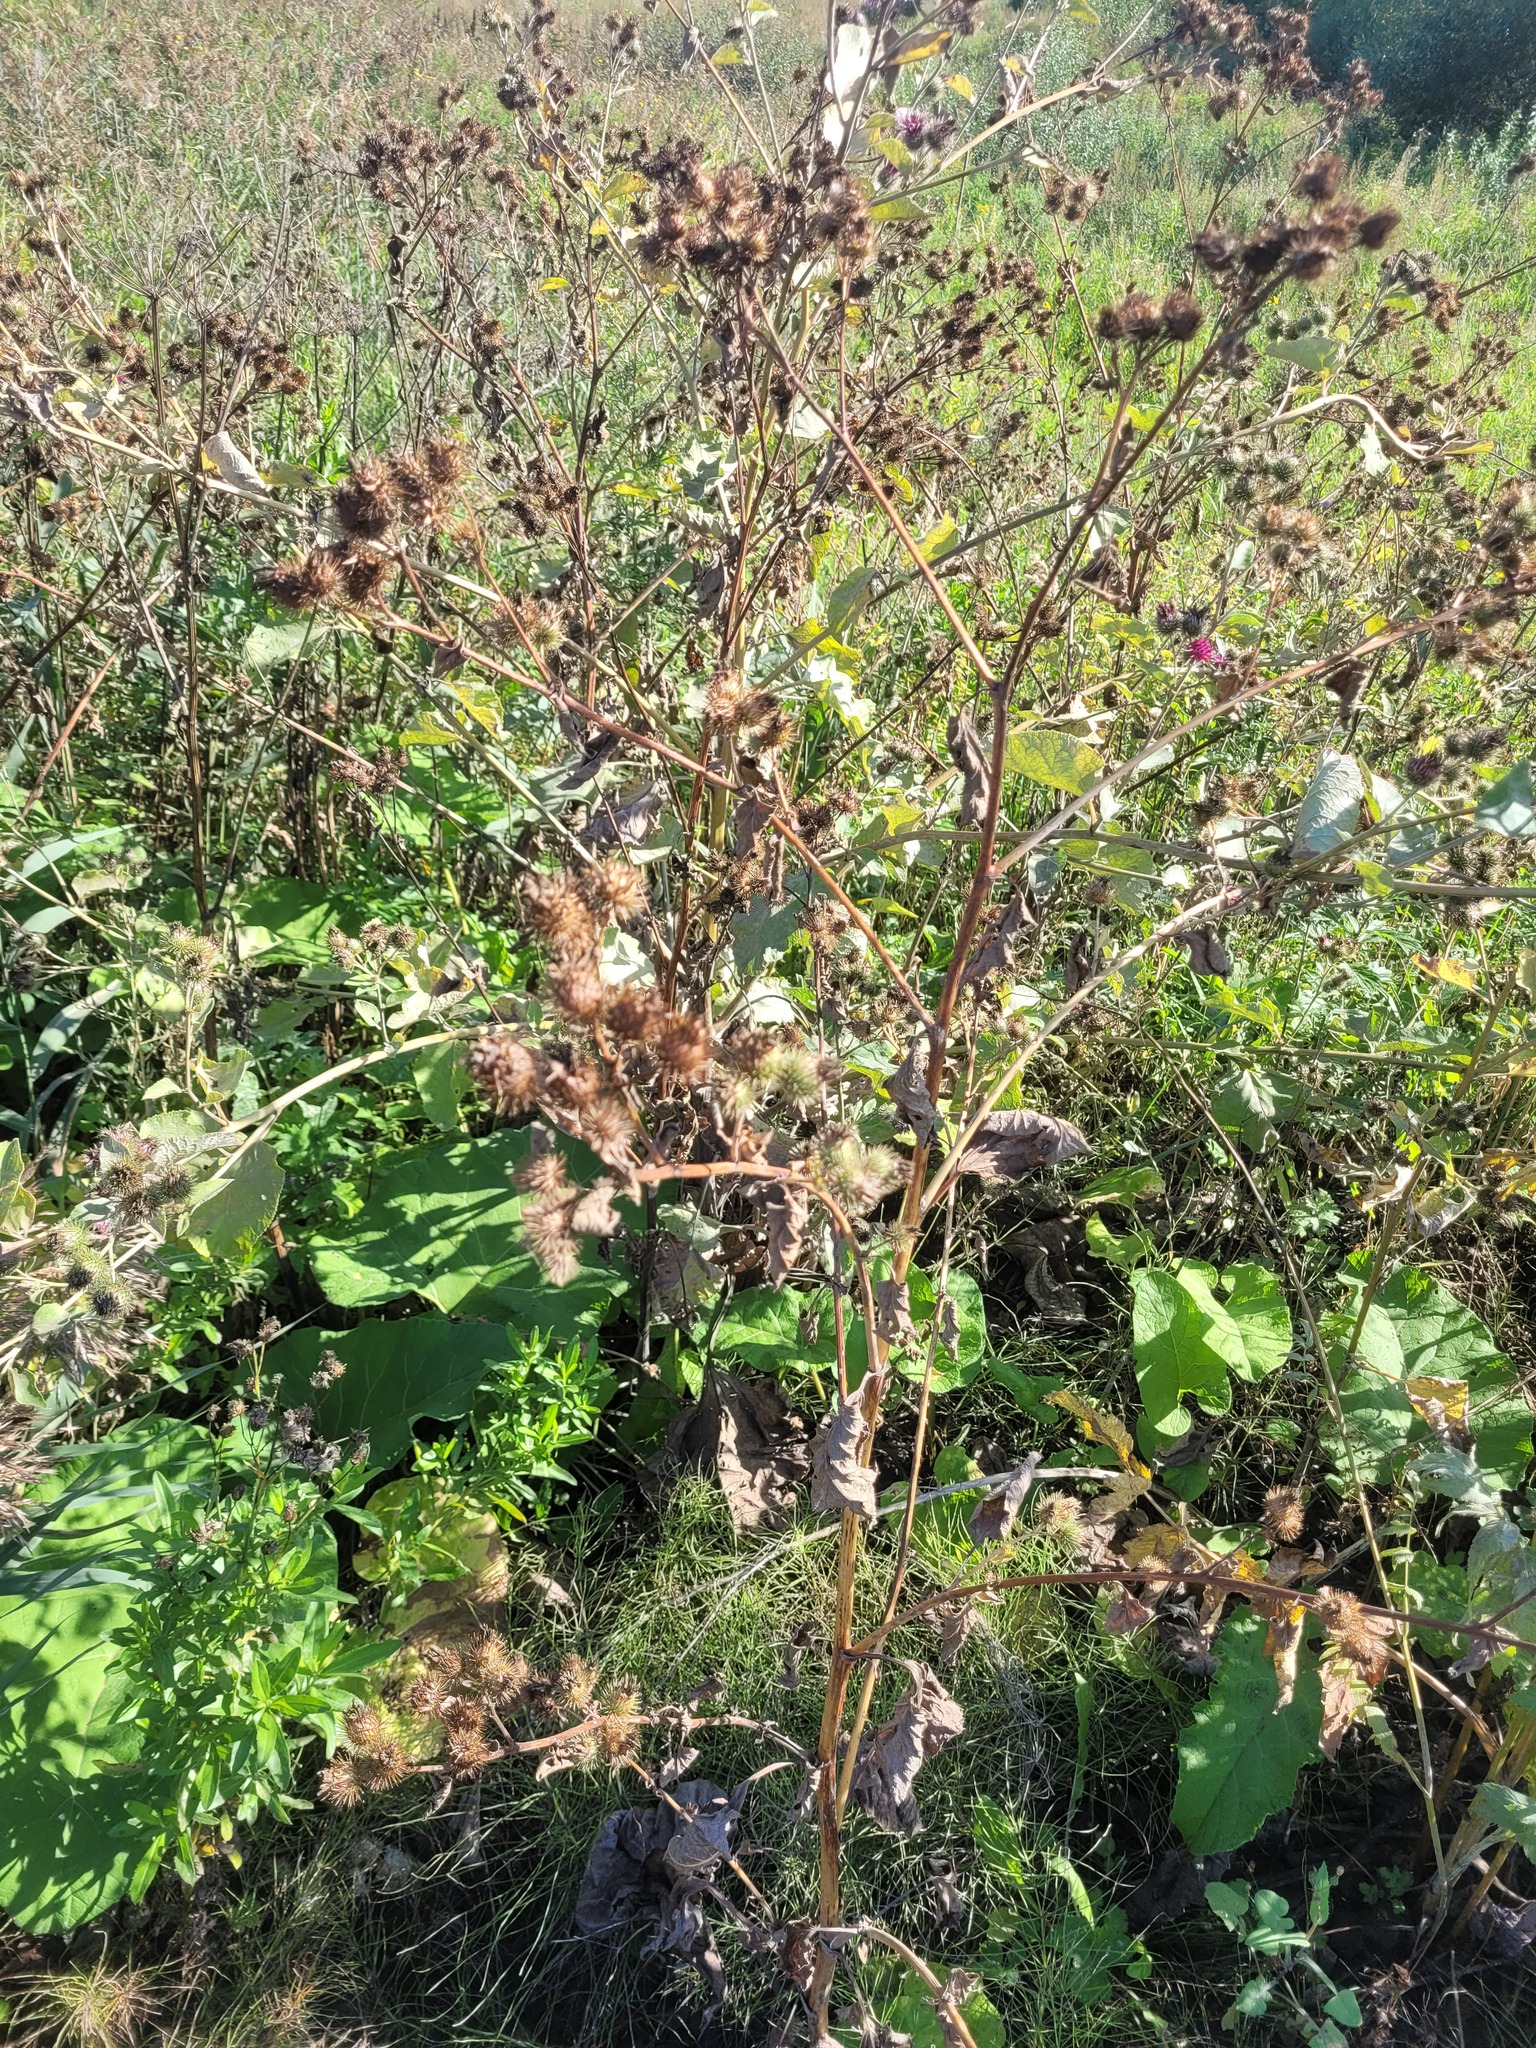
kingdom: Plantae
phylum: Tracheophyta
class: Magnoliopsida
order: Asterales
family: Asteraceae
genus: Arctium
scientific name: Arctium tomentosum
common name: Woolly burdock
